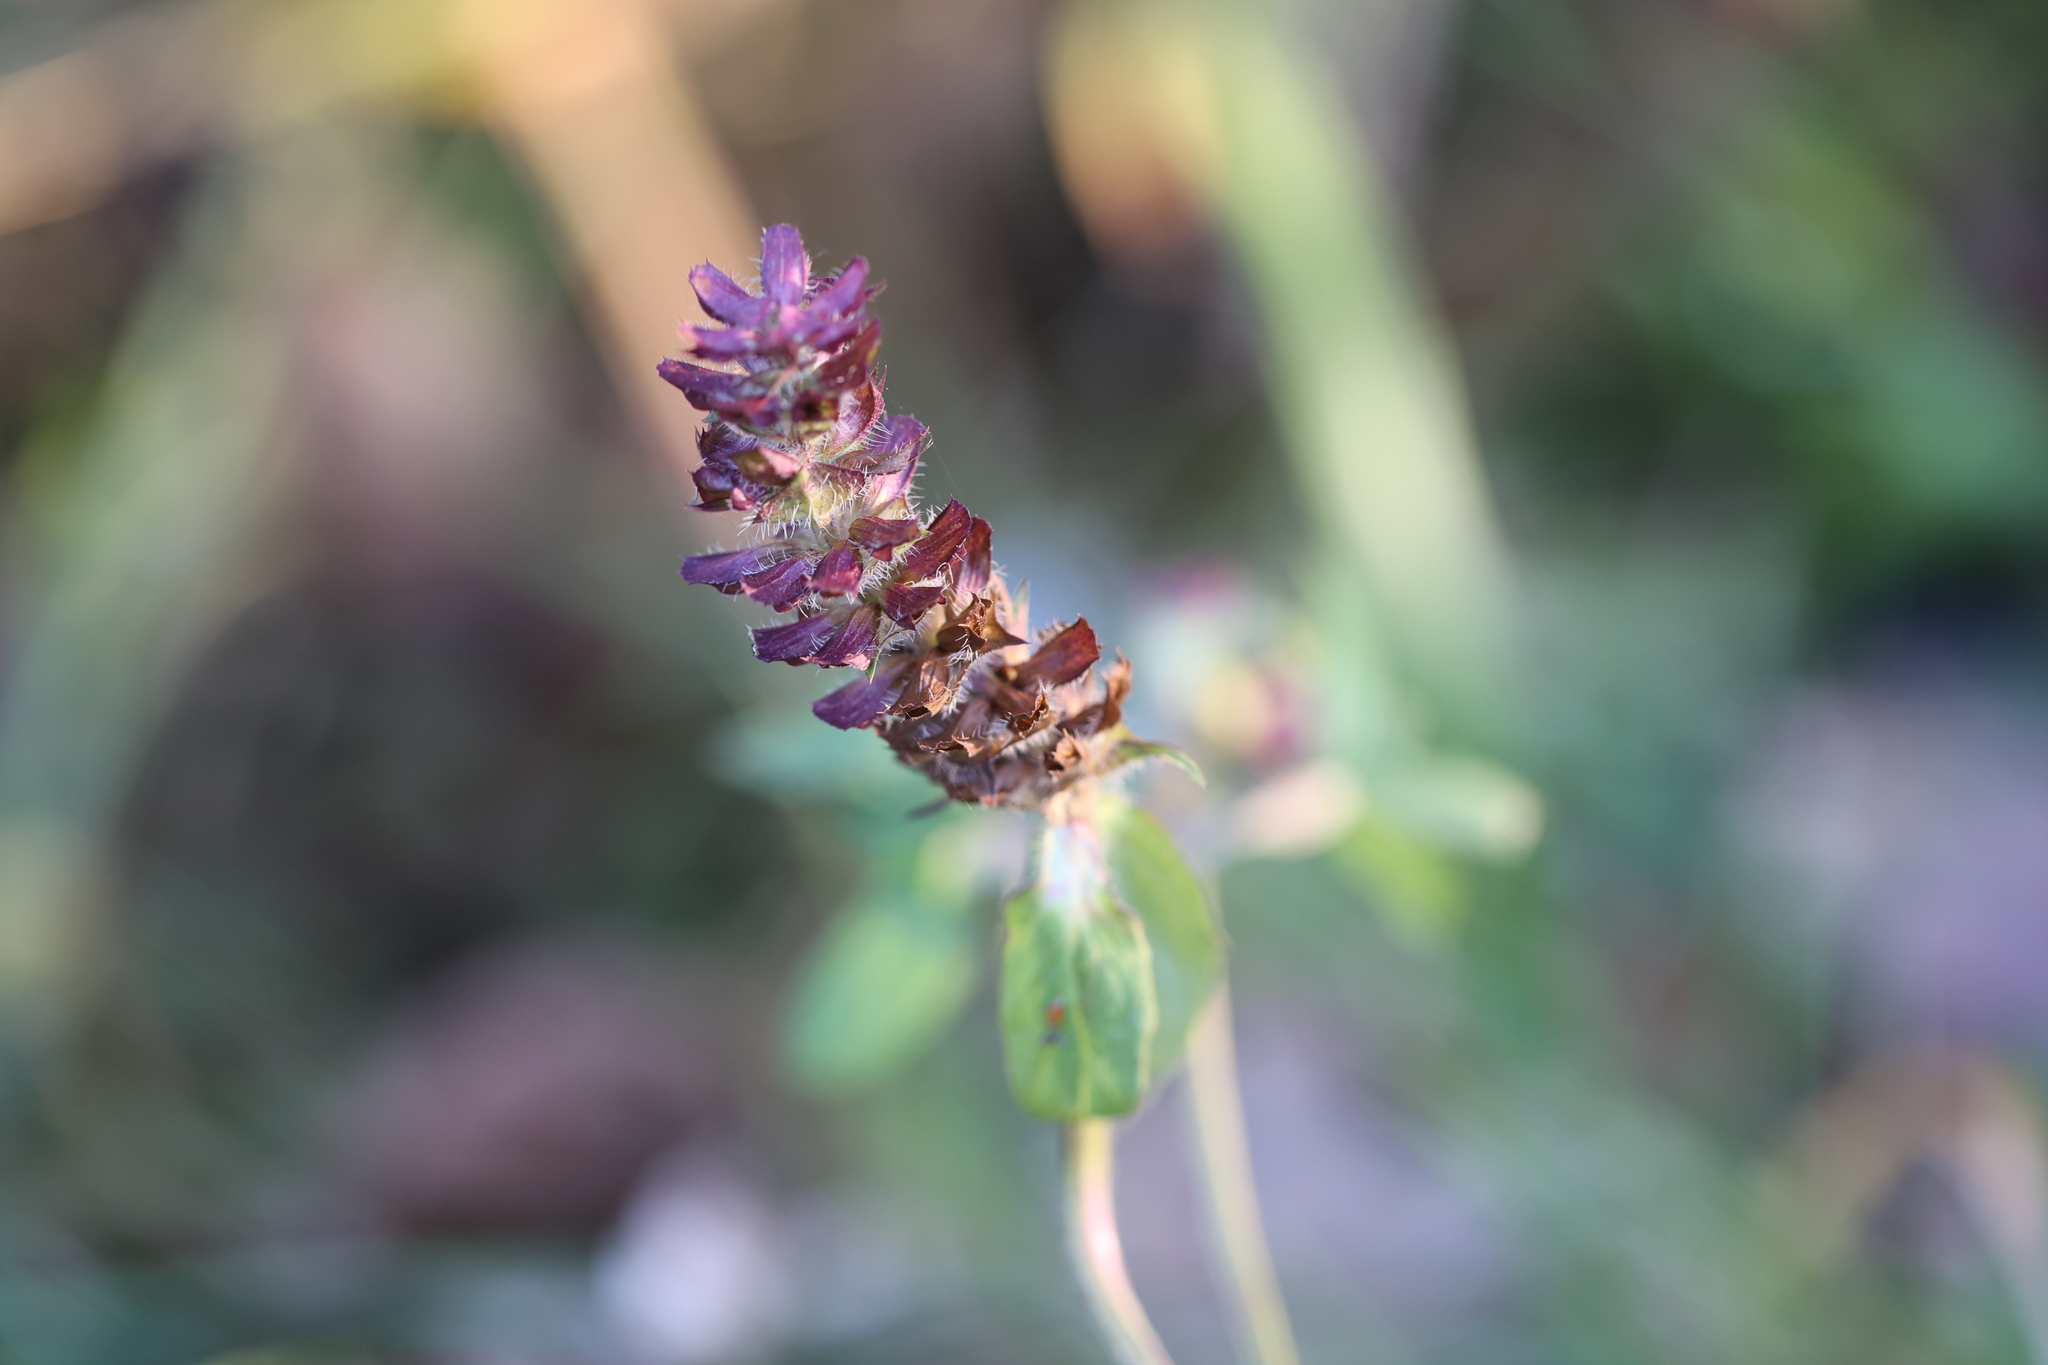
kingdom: Plantae
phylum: Tracheophyta
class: Magnoliopsida
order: Lamiales
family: Lamiaceae
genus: Prunella
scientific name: Prunella vulgaris
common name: Heal-all
